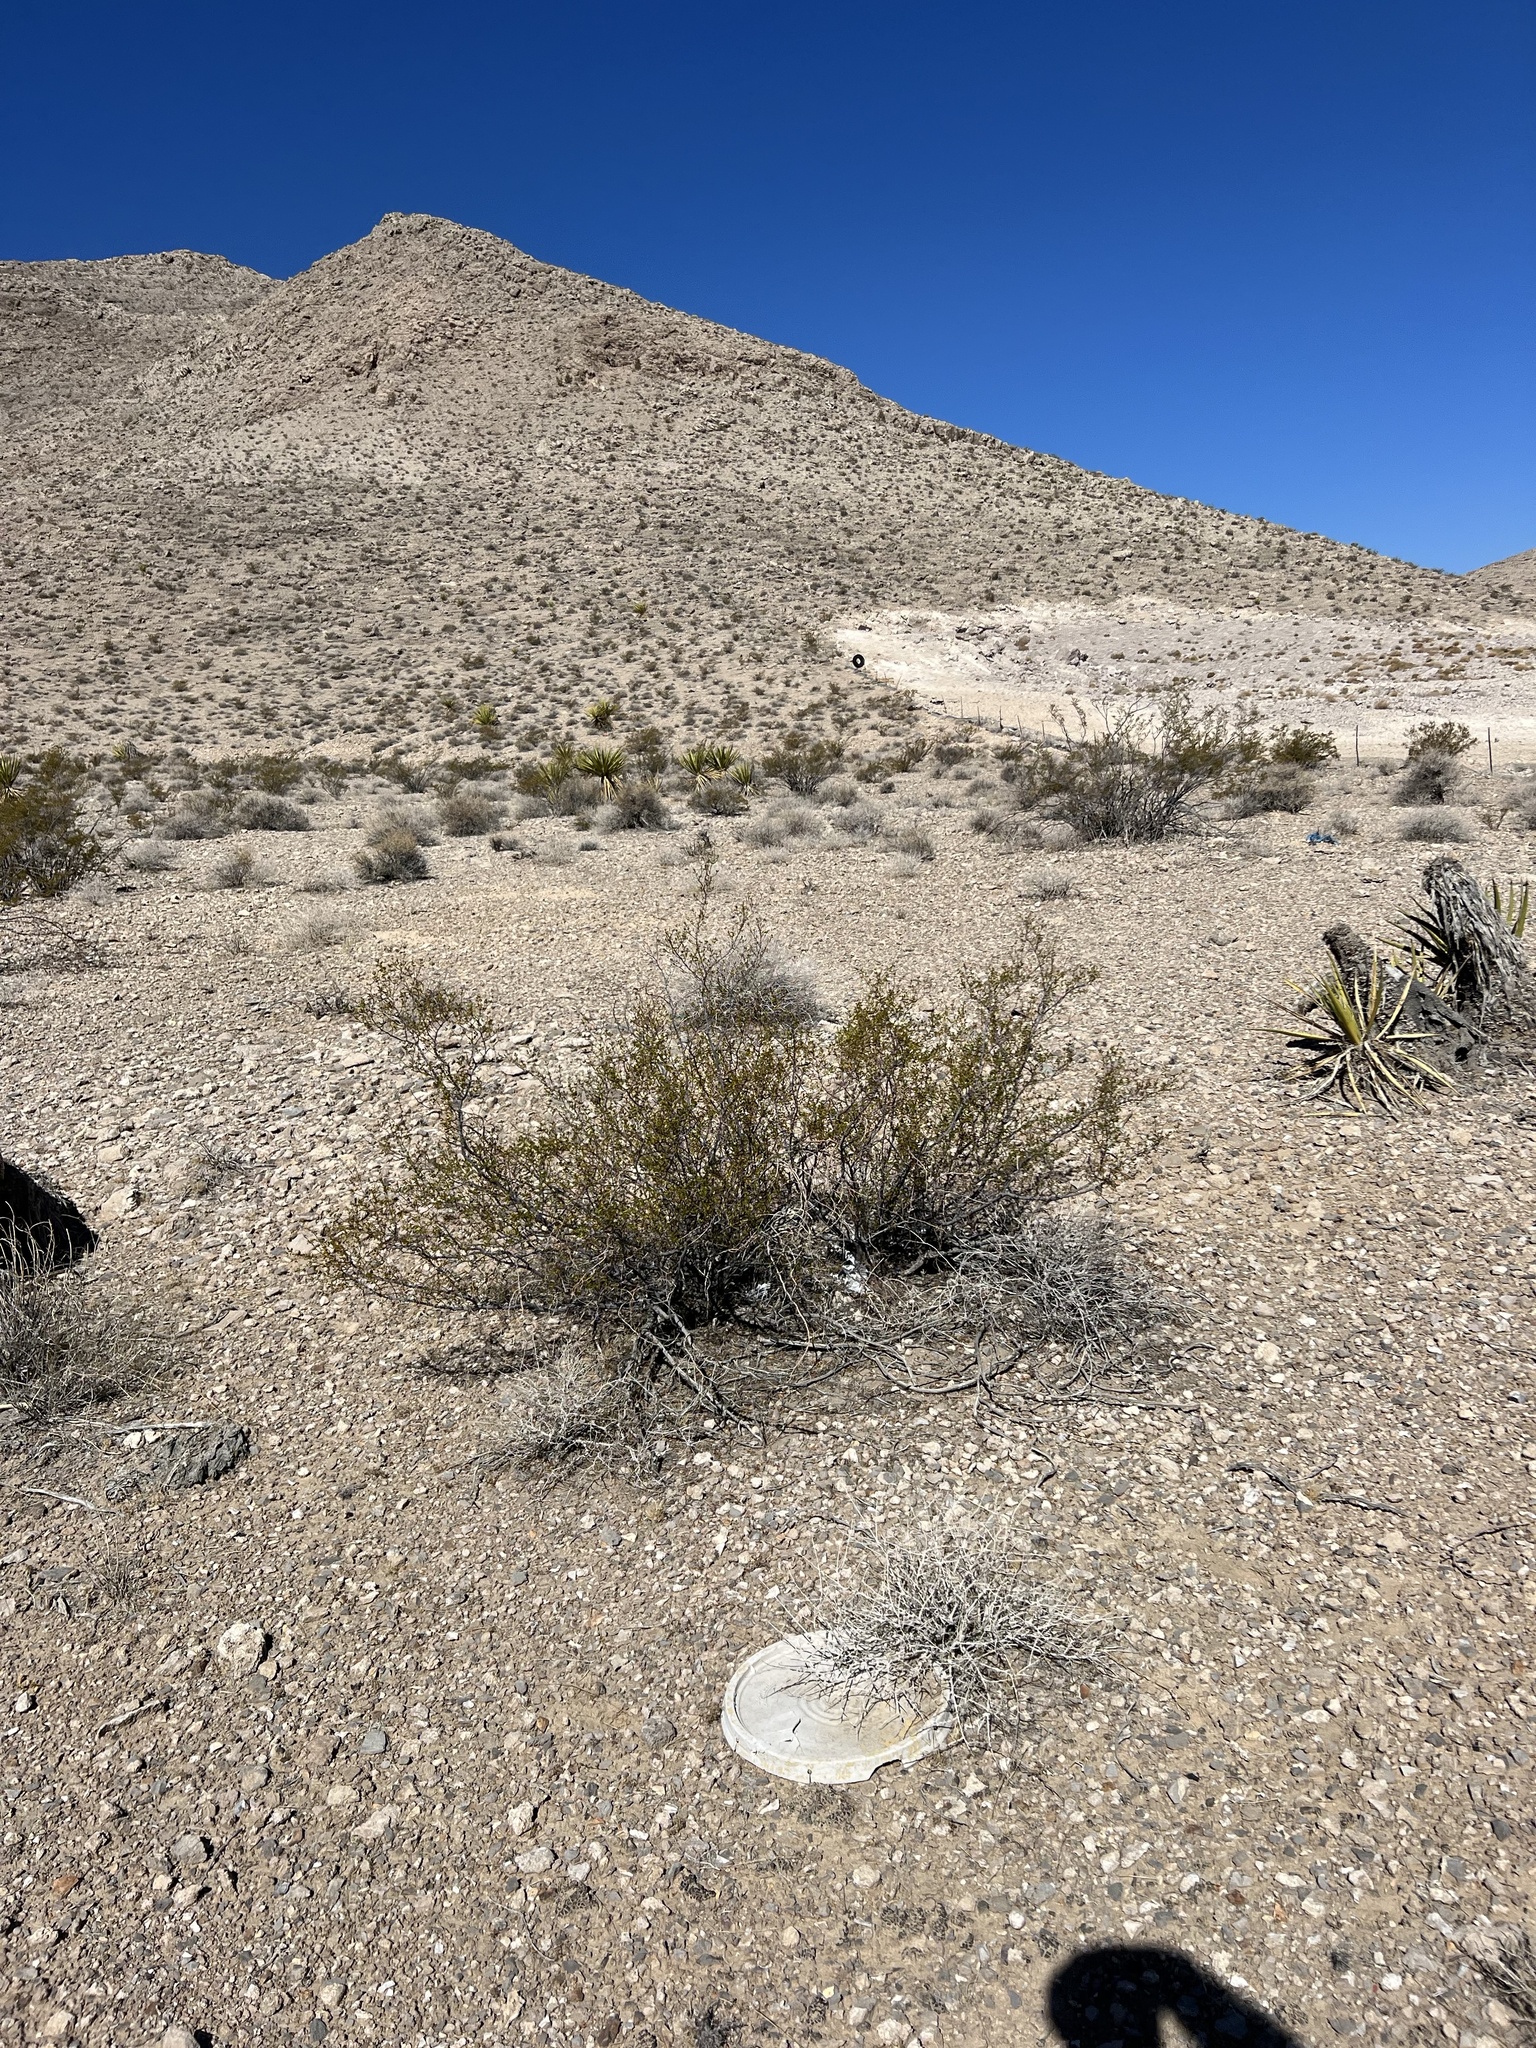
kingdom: Plantae
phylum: Tracheophyta
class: Magnoliopsida
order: Zygophyllales
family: Zygophyllaceae
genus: Larrea
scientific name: Larrea tridentata
